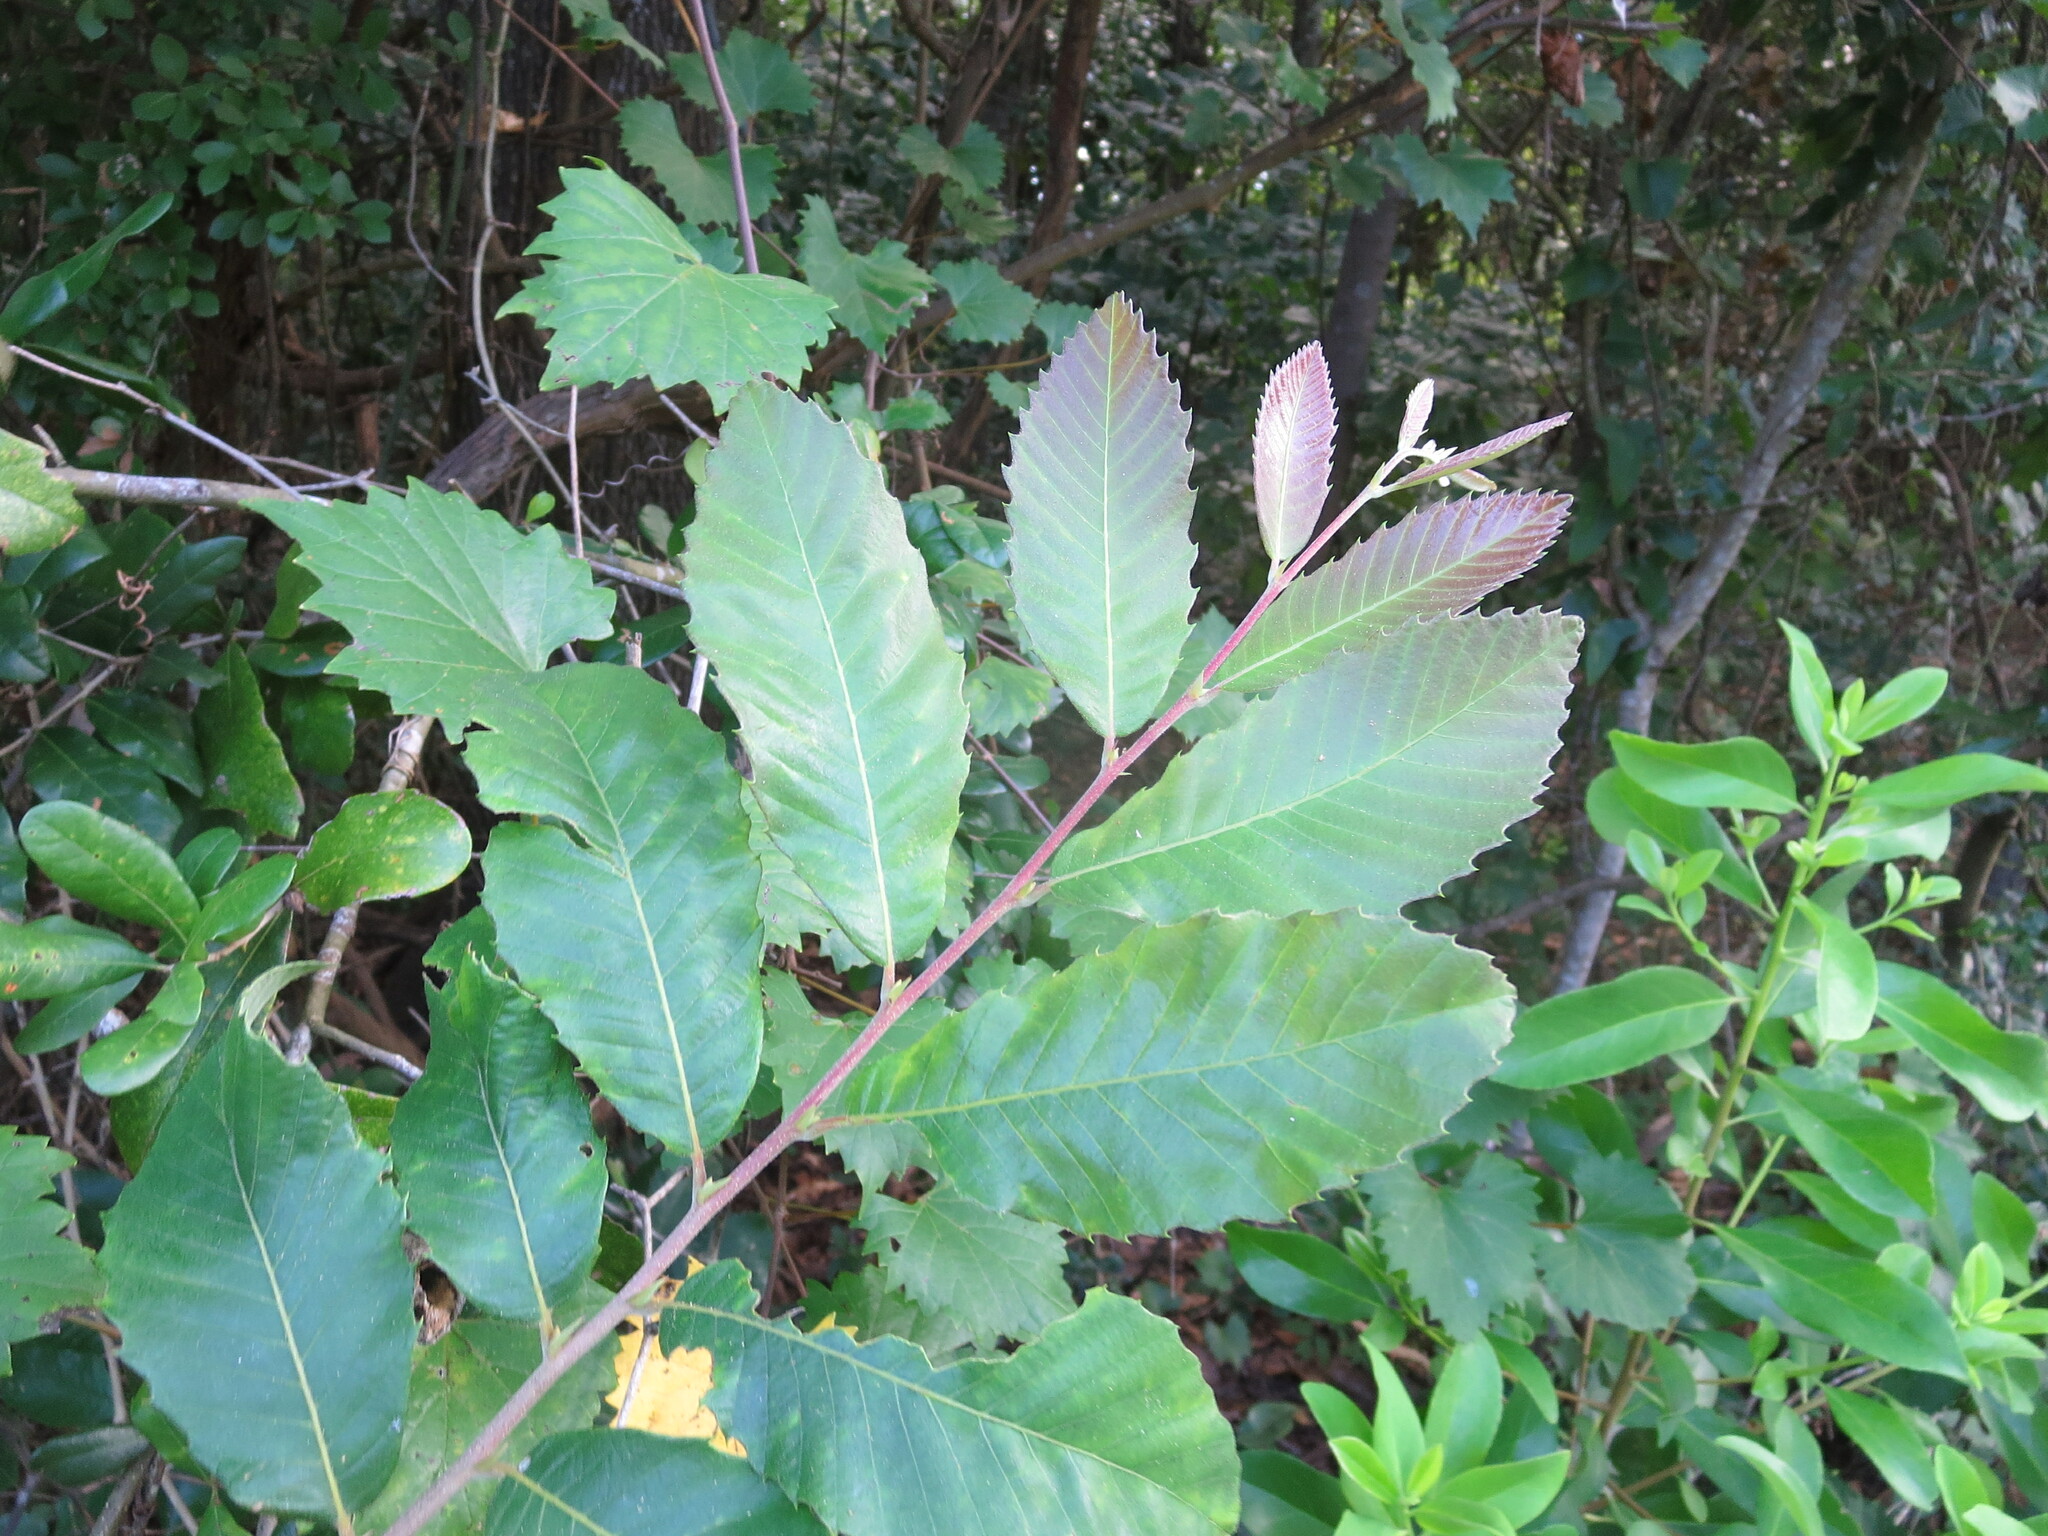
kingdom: Plantae
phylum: Tracheophyta
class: Magnoliopsida
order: Fagales
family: Fagaceae
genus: Castanea
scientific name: Castanea pumila
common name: Chinkapin
